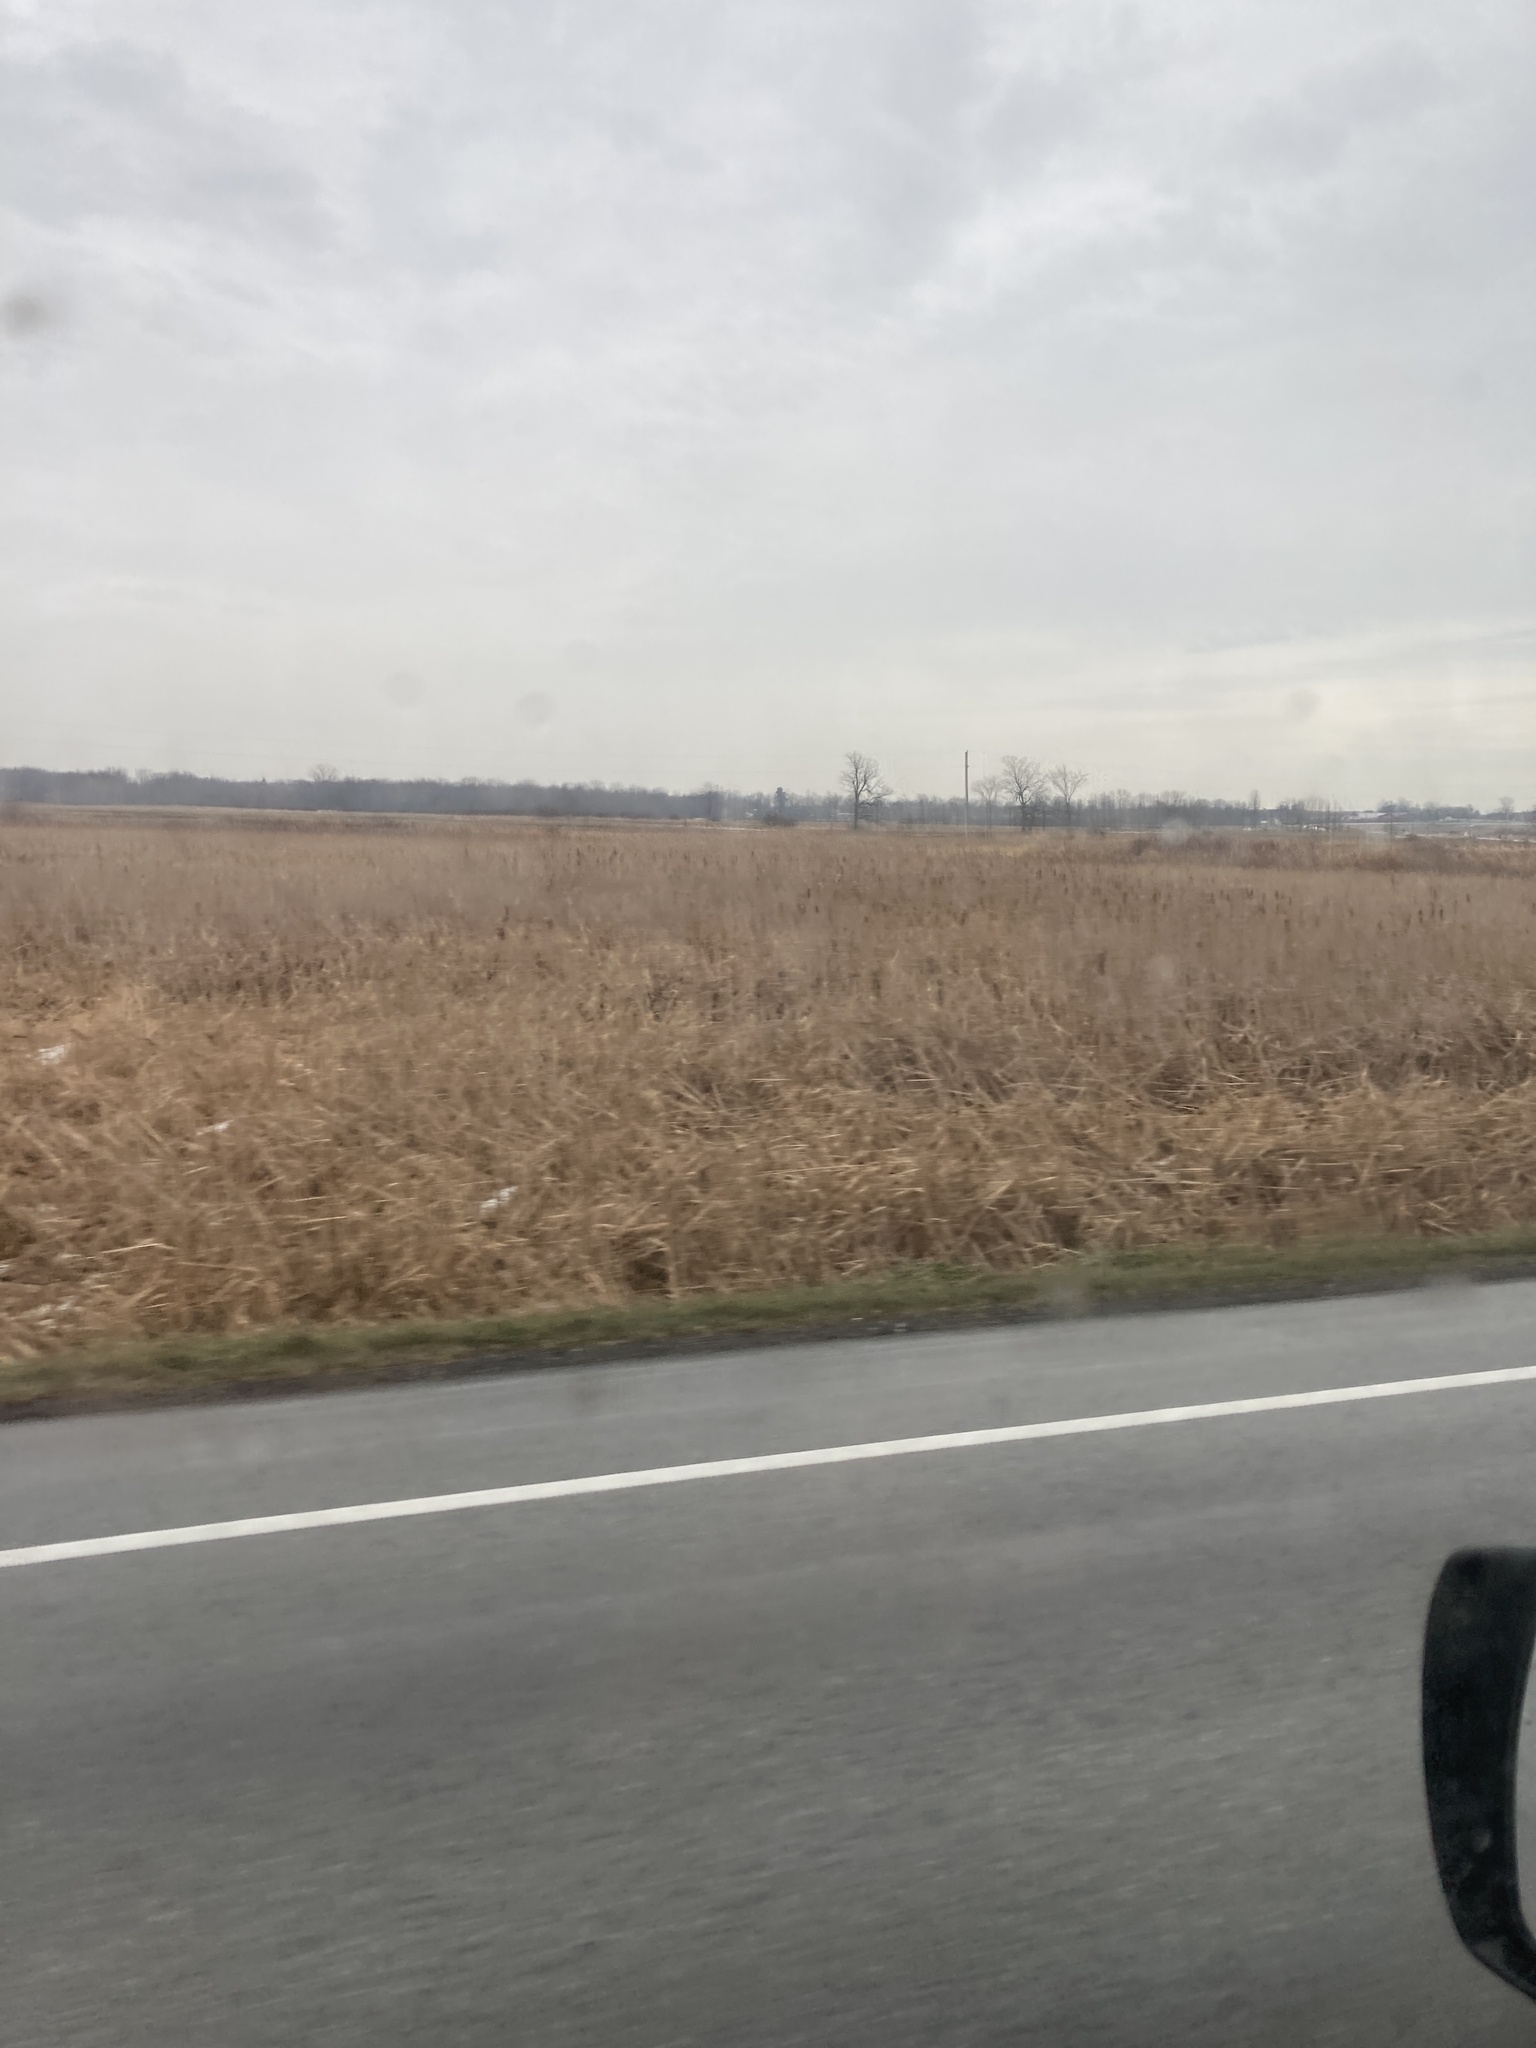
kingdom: Plantae
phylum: Tracheophyta
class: Liliopsida
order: Poales
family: Typhaceae
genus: Typha
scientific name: Typha
